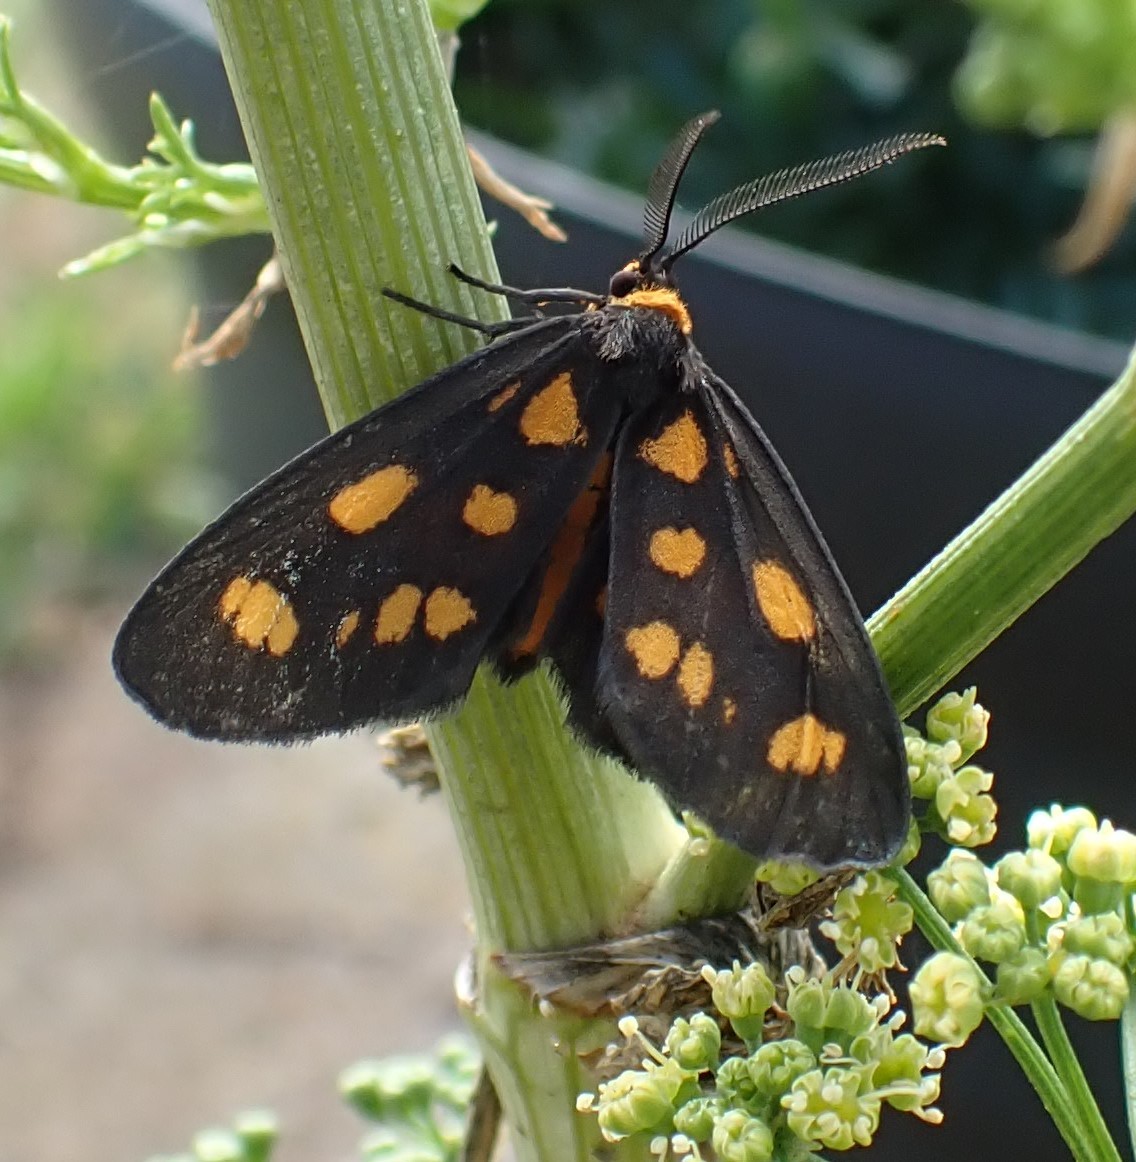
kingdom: Animalia
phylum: Arthropoda
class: Insecta
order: Lepidoptera
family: Erebidae
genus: Asura
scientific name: Asura cervicalis
